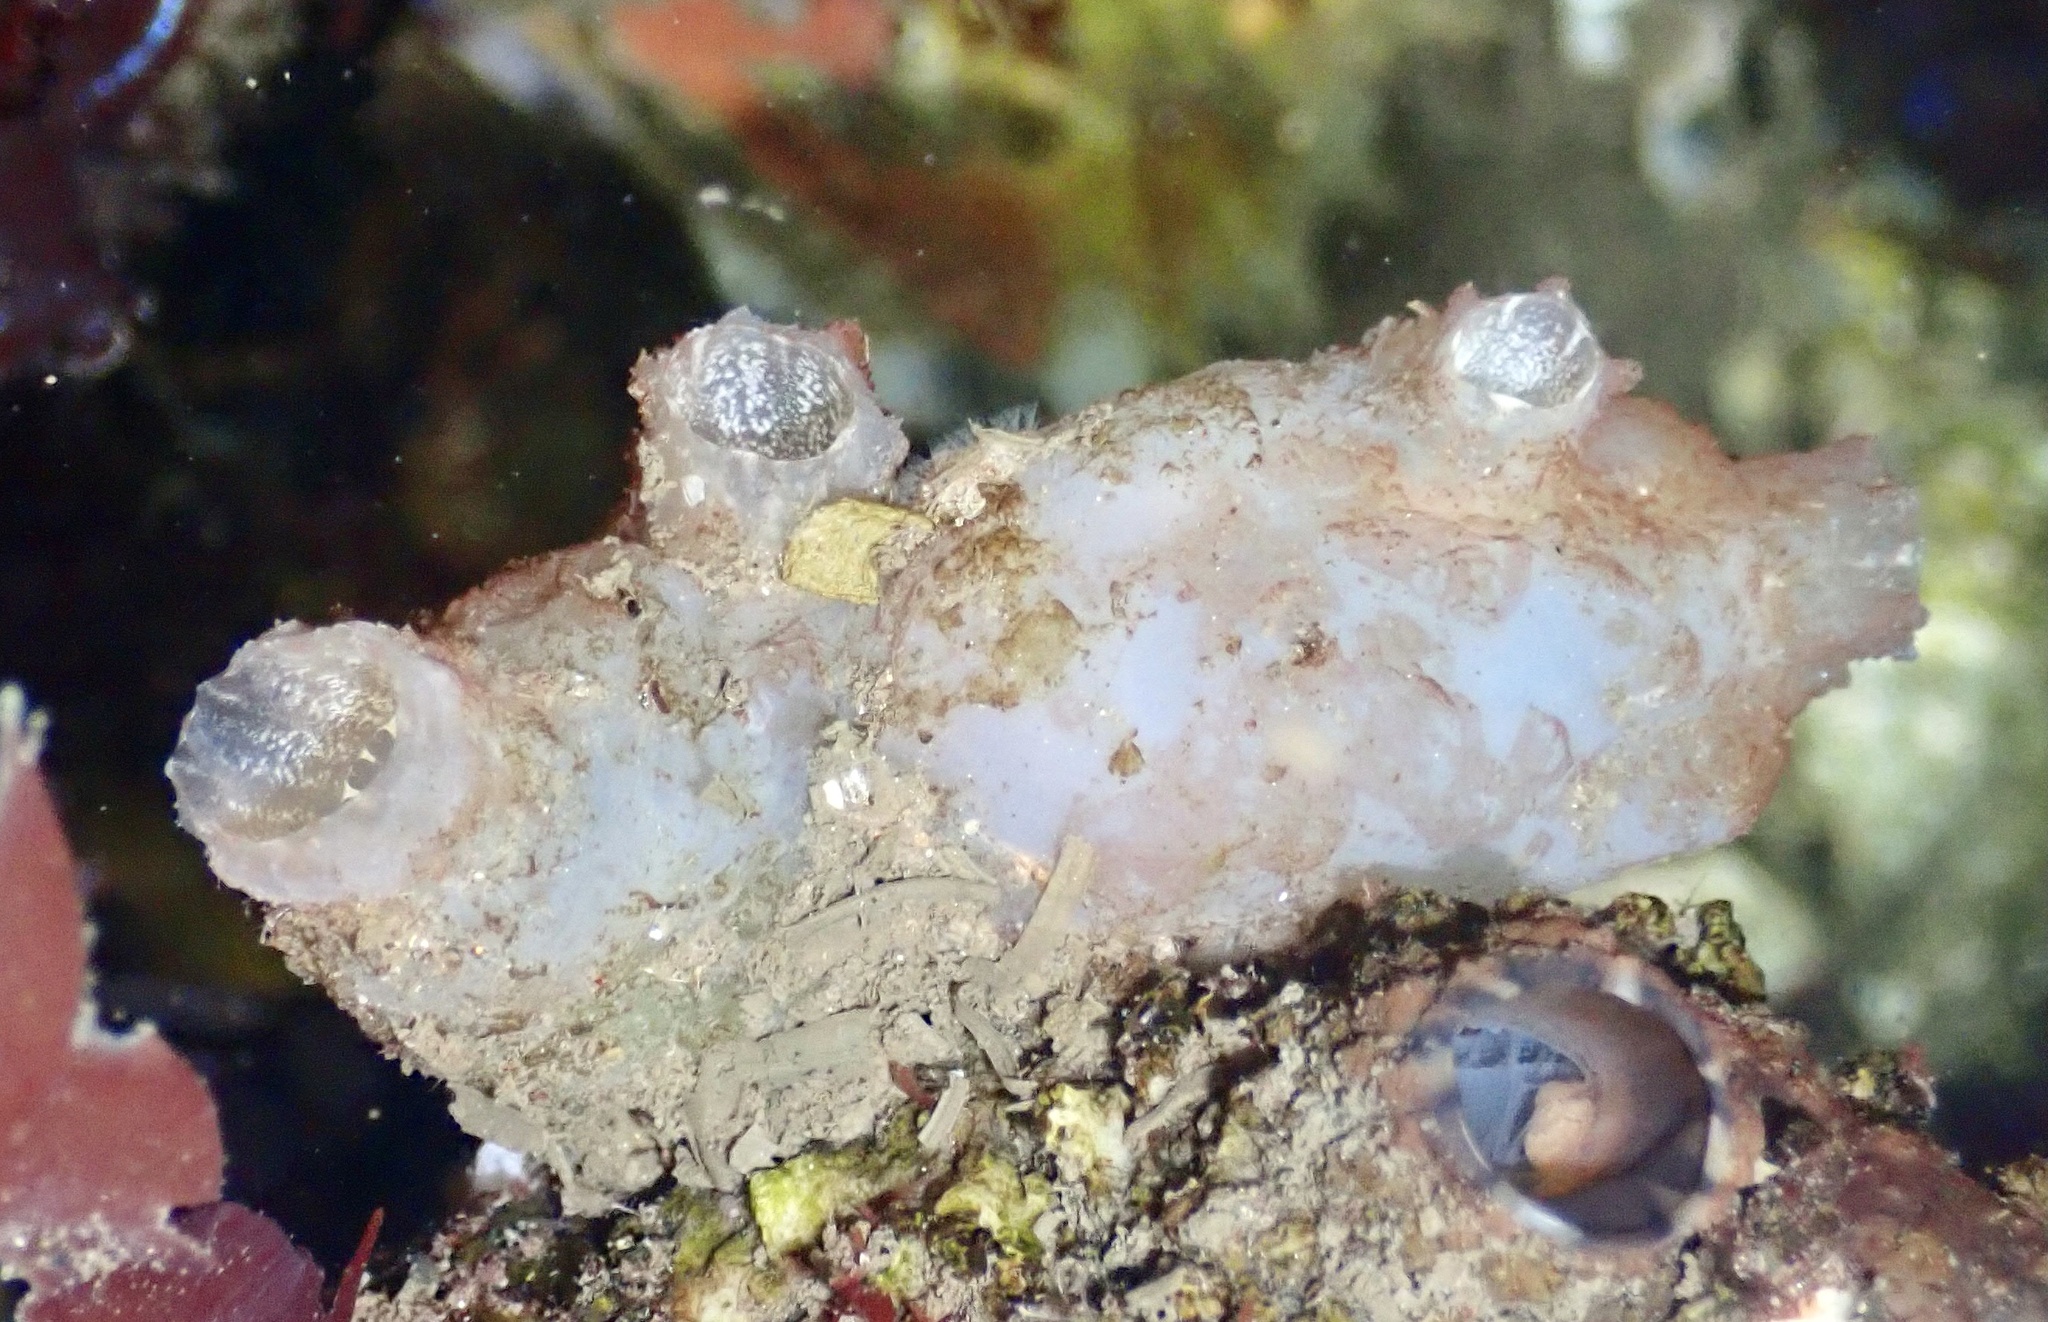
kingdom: Animalia
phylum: Chordata
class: Ascidiacea
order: Phlebobranchia
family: Ascidiidae
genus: Ascidiella
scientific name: Ascidiella aspersa
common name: Dirty sea-squirt
